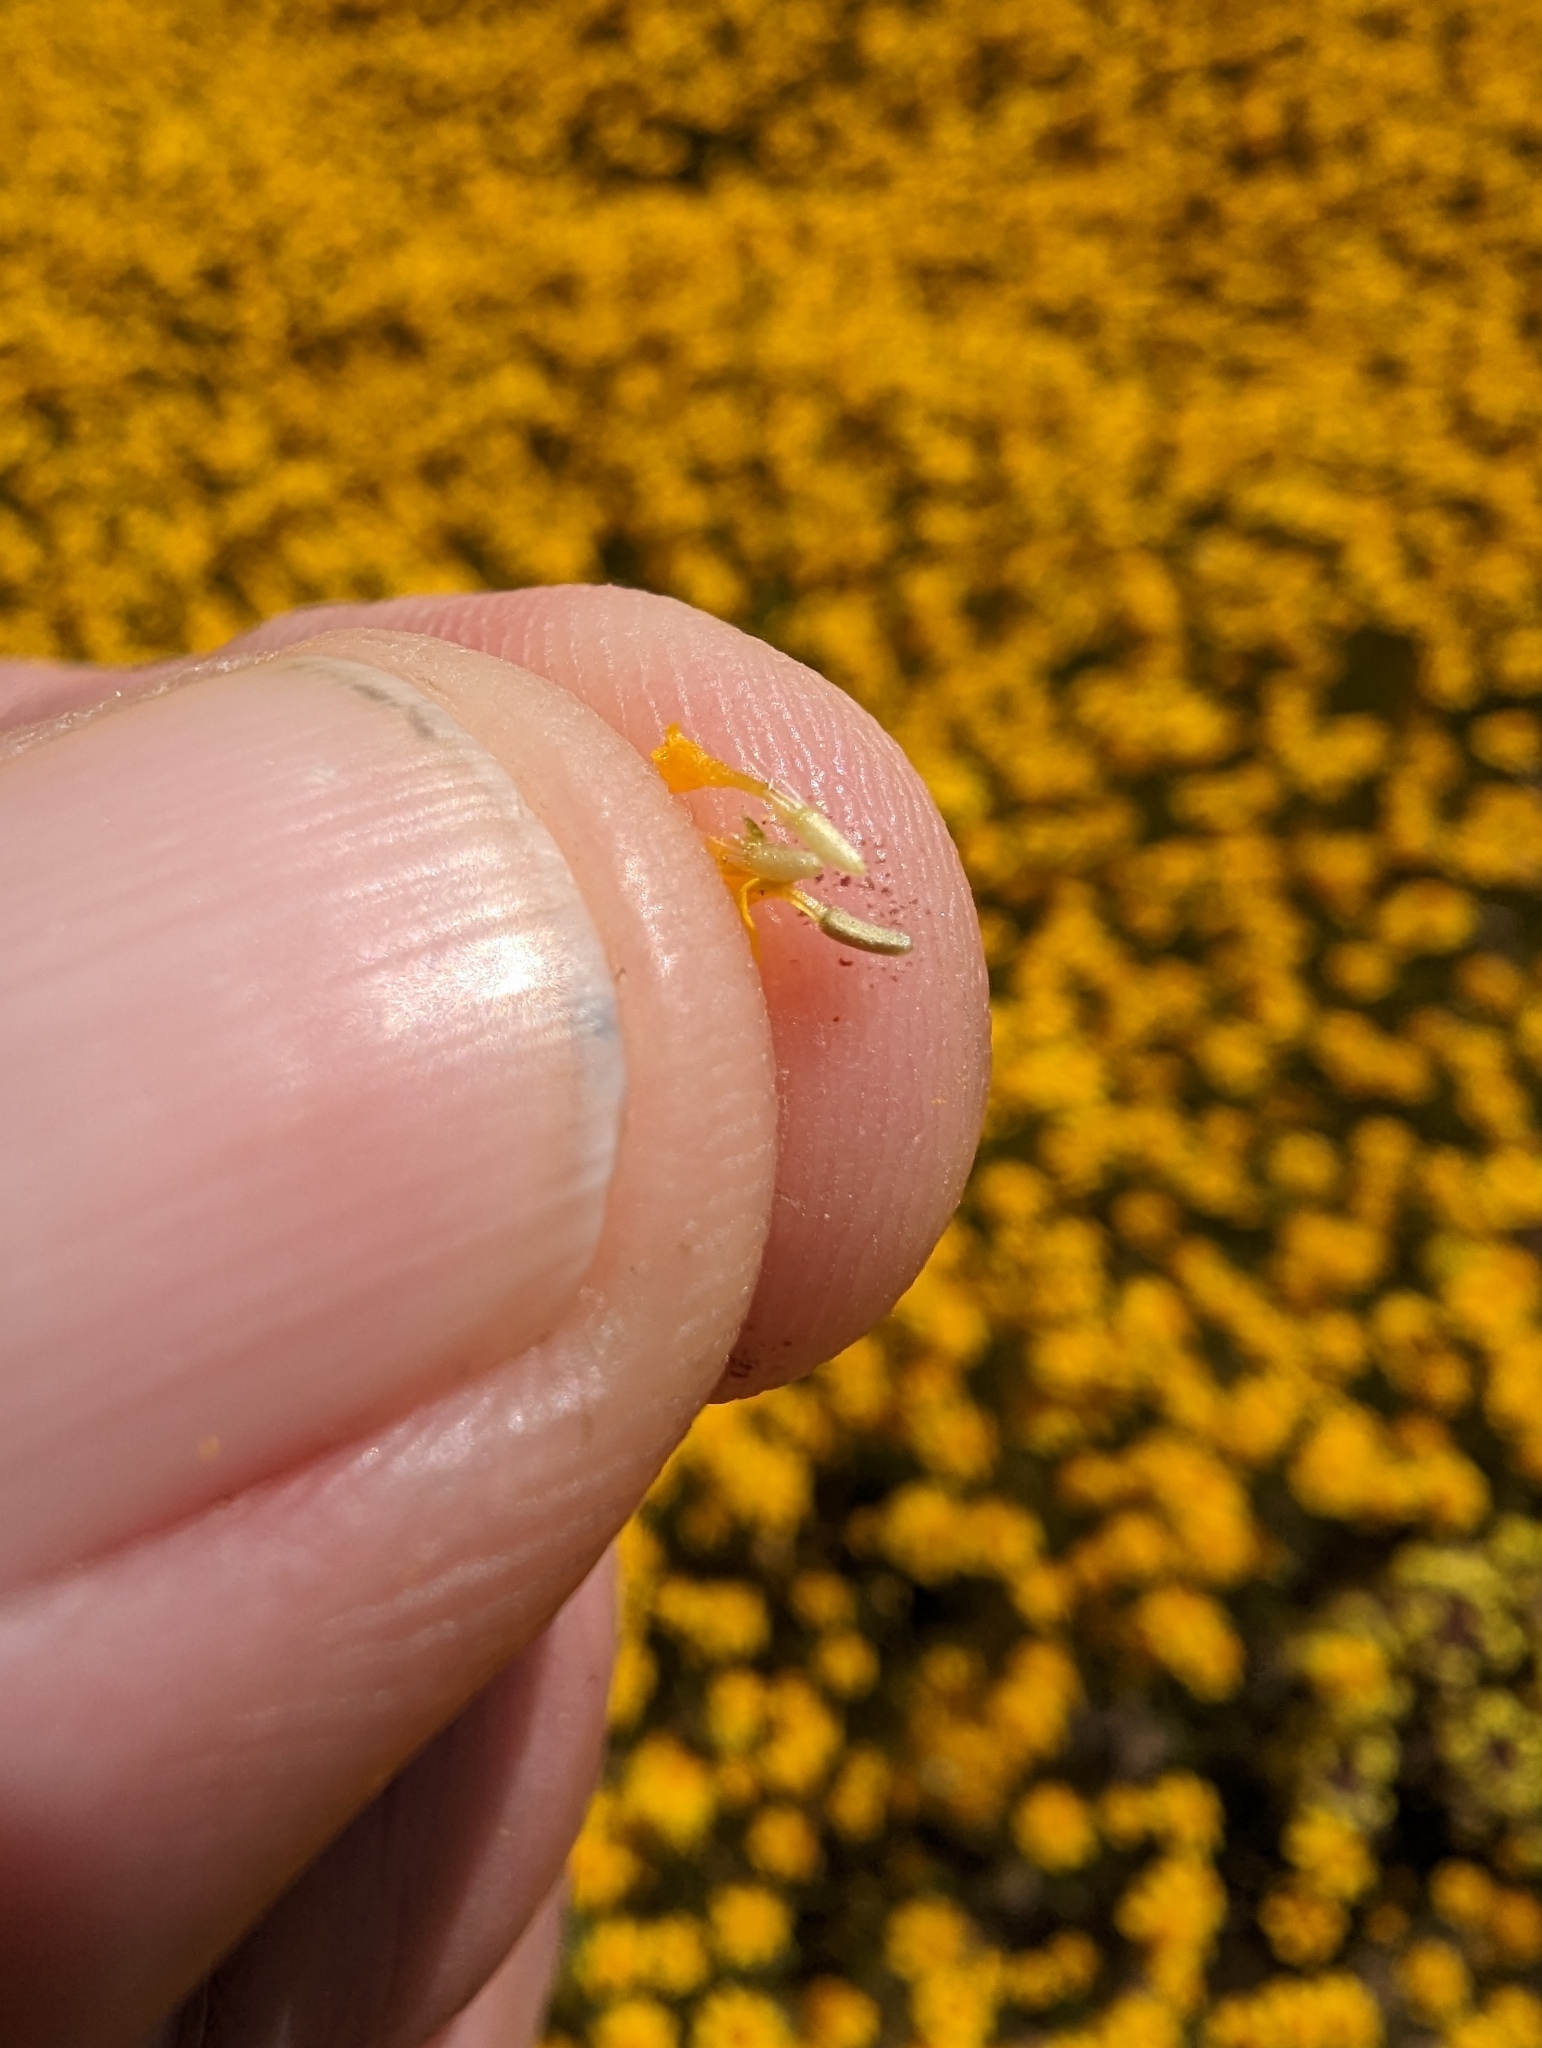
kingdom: Plantae
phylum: Tracheophyta
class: Magnoliopsida
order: Asterales
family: Asteraceae
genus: Lasthenia
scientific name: Lasthenia fremontii
